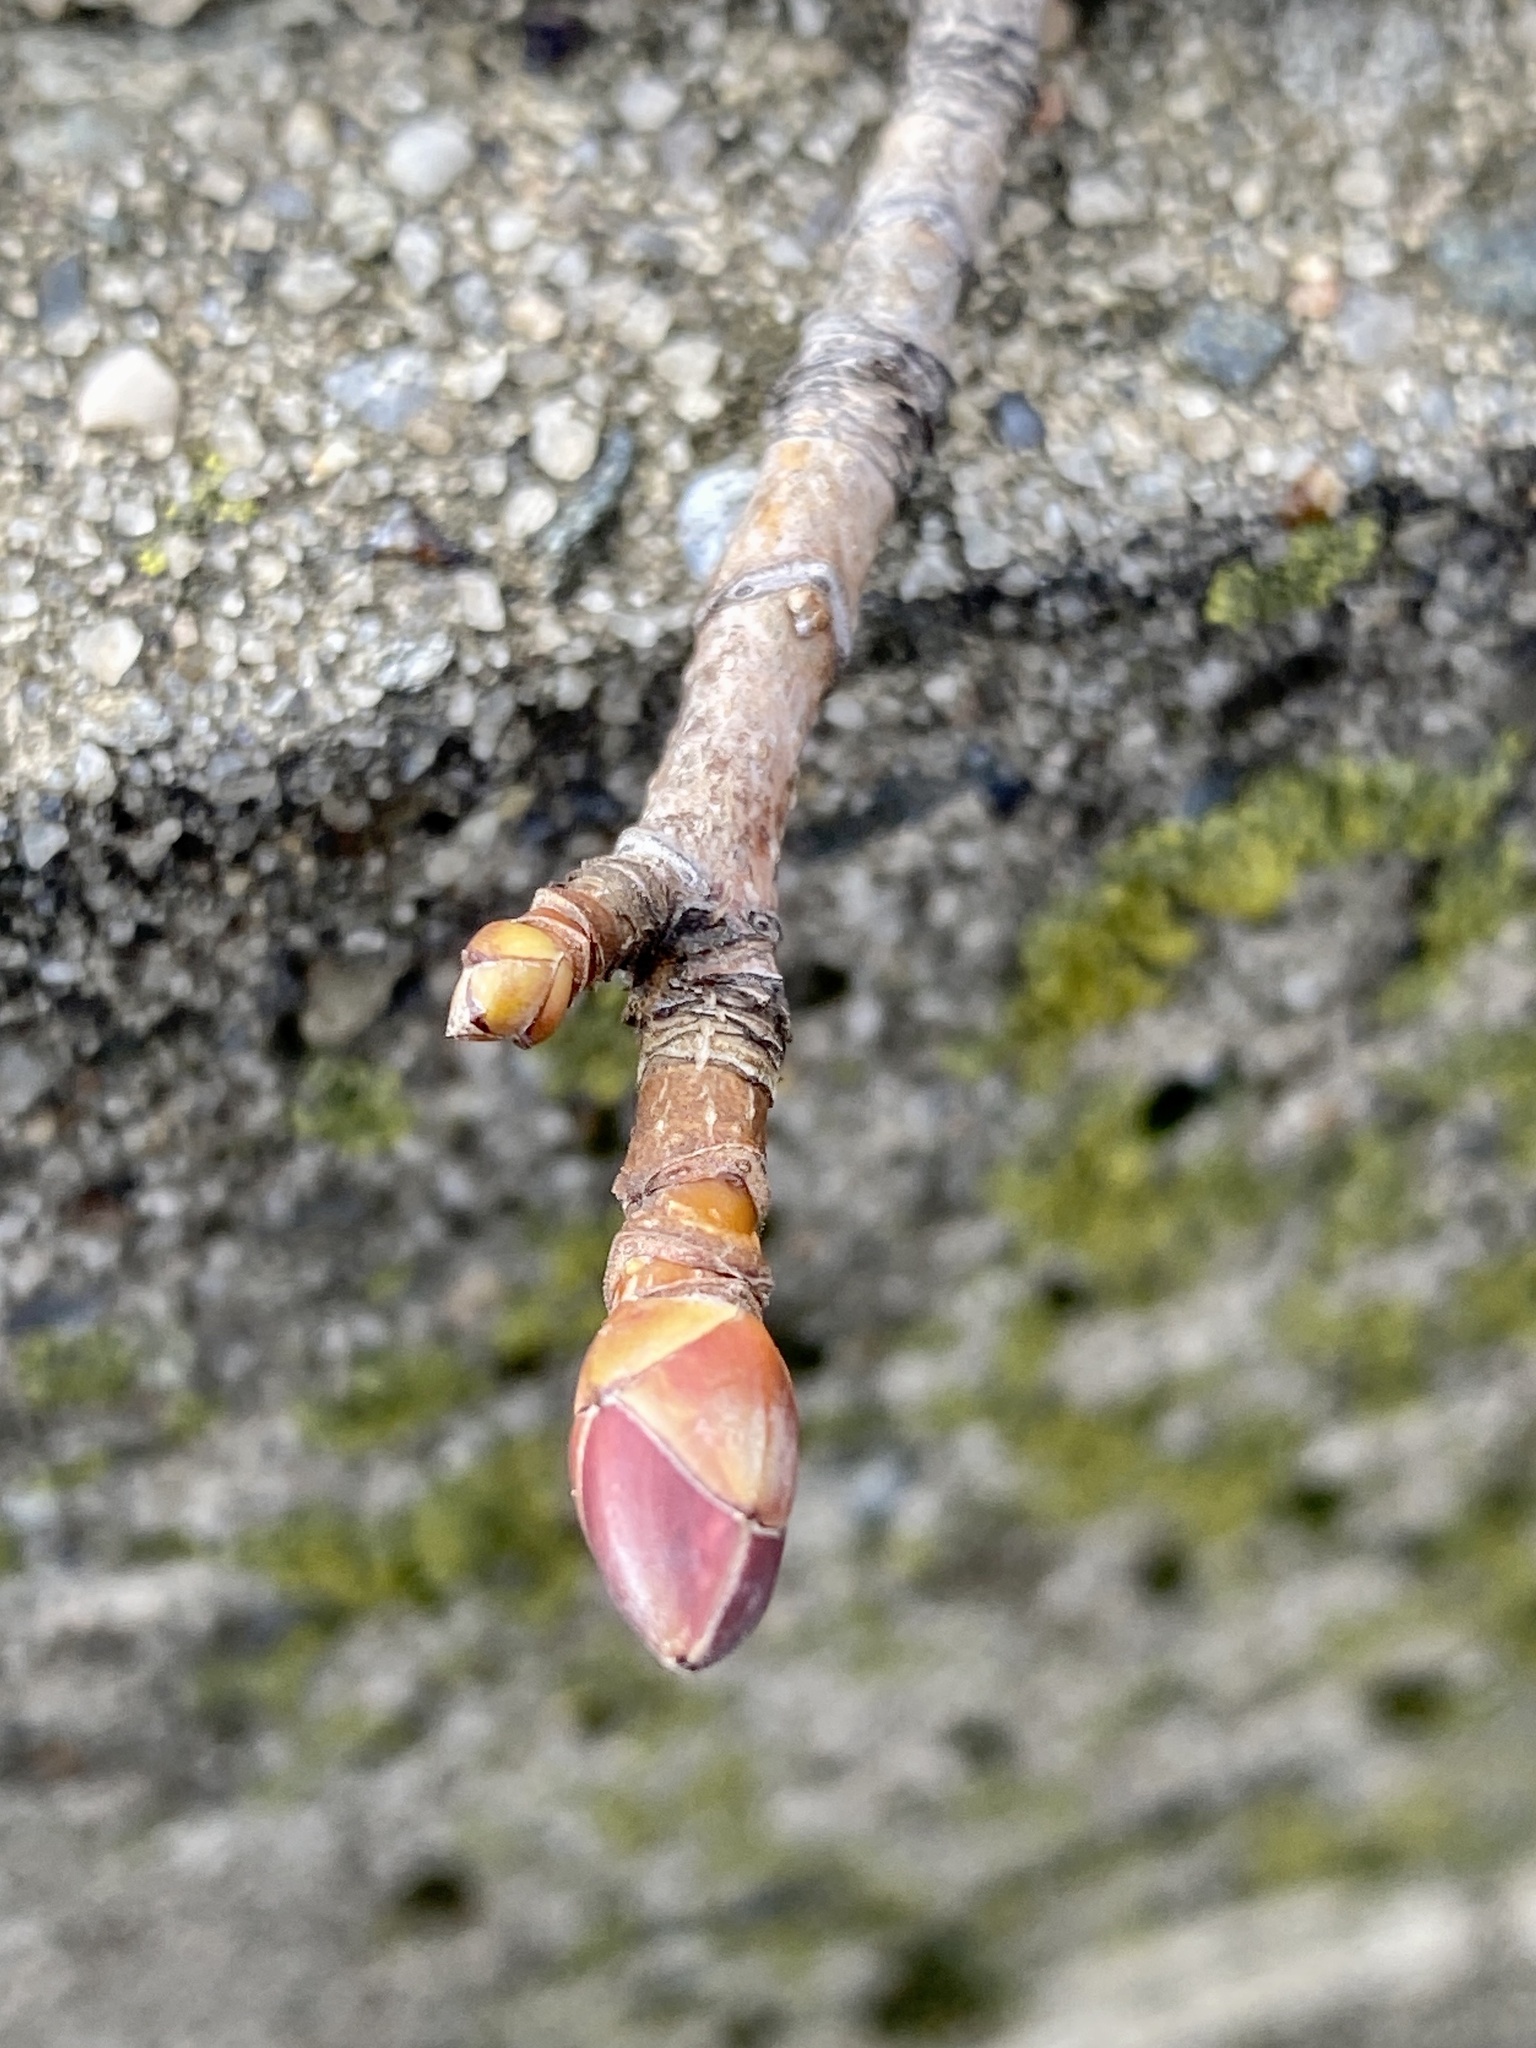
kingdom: Plantae
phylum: Tracheophyta
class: Magnoliopsida
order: Sapindales
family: Sapindaceae
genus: Acer
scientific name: Acer platanoides
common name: Norway maple
